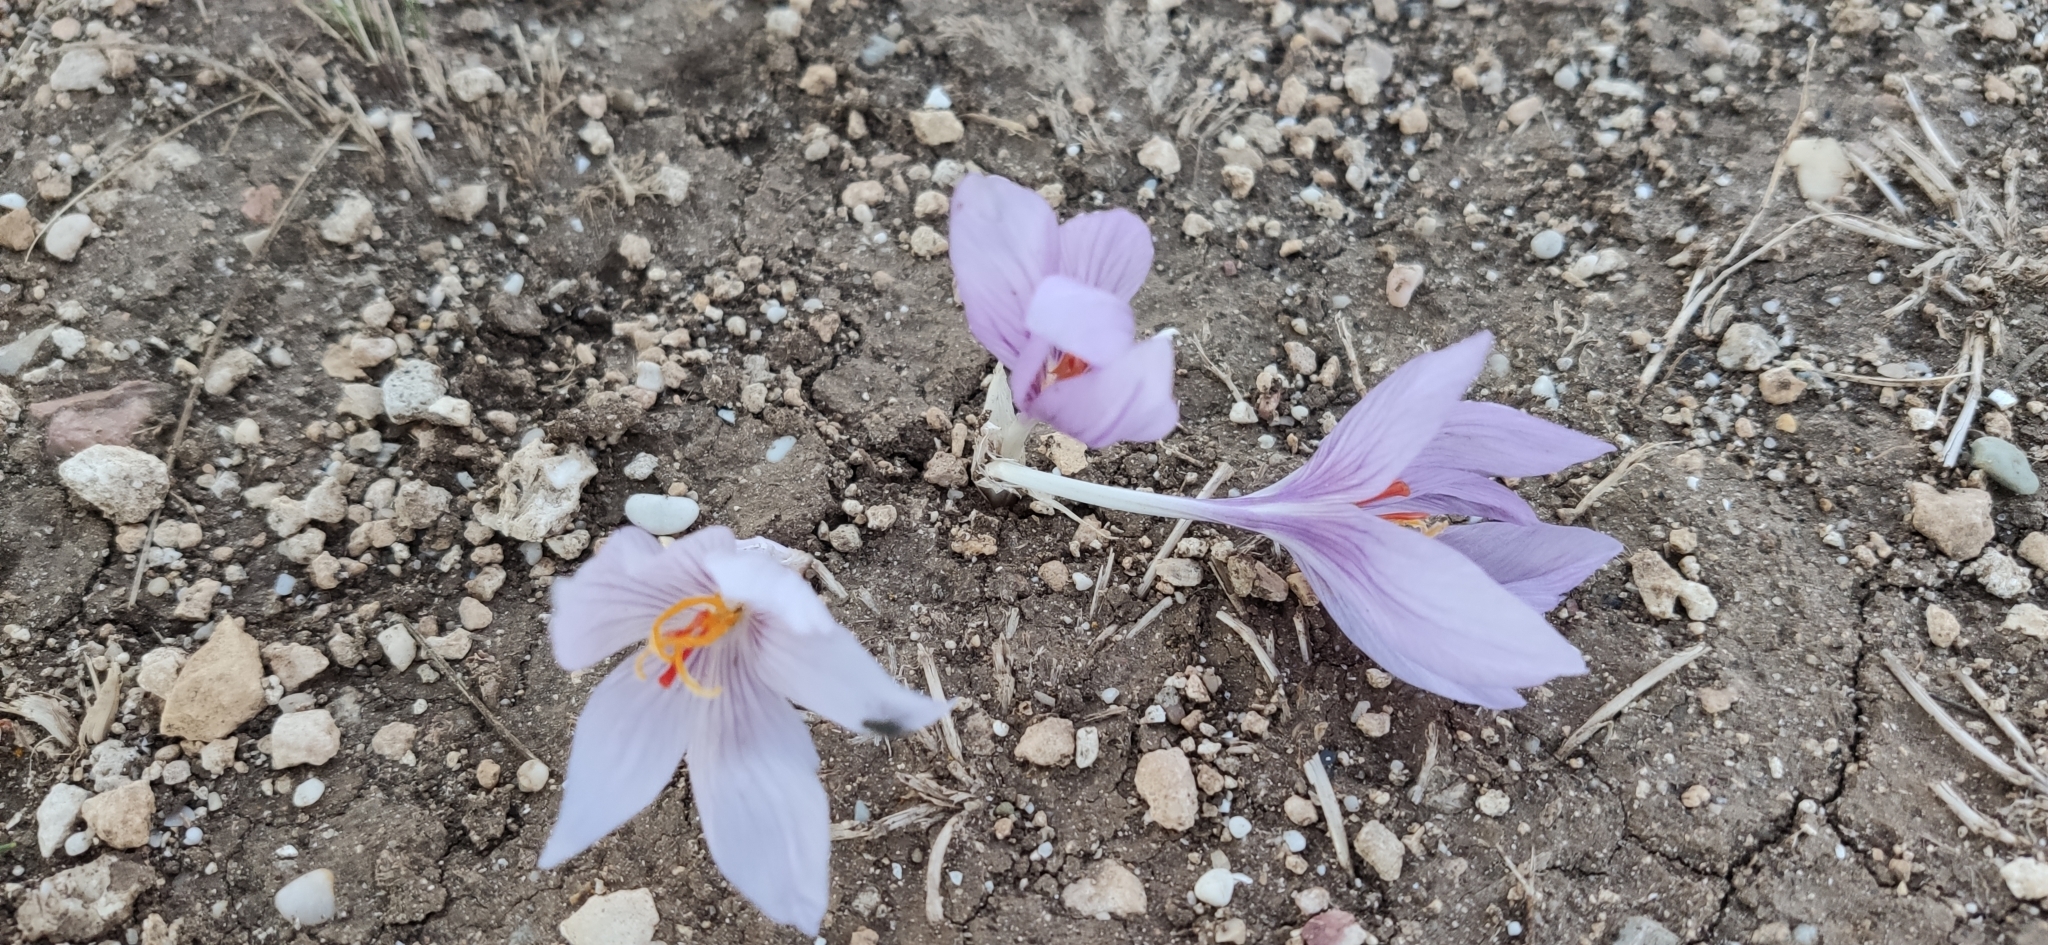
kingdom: Plantae
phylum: Tracheophyta
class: Liliopsida
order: Asparagales
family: Iridaceae
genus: Crocus
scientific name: Crocus pallasii
